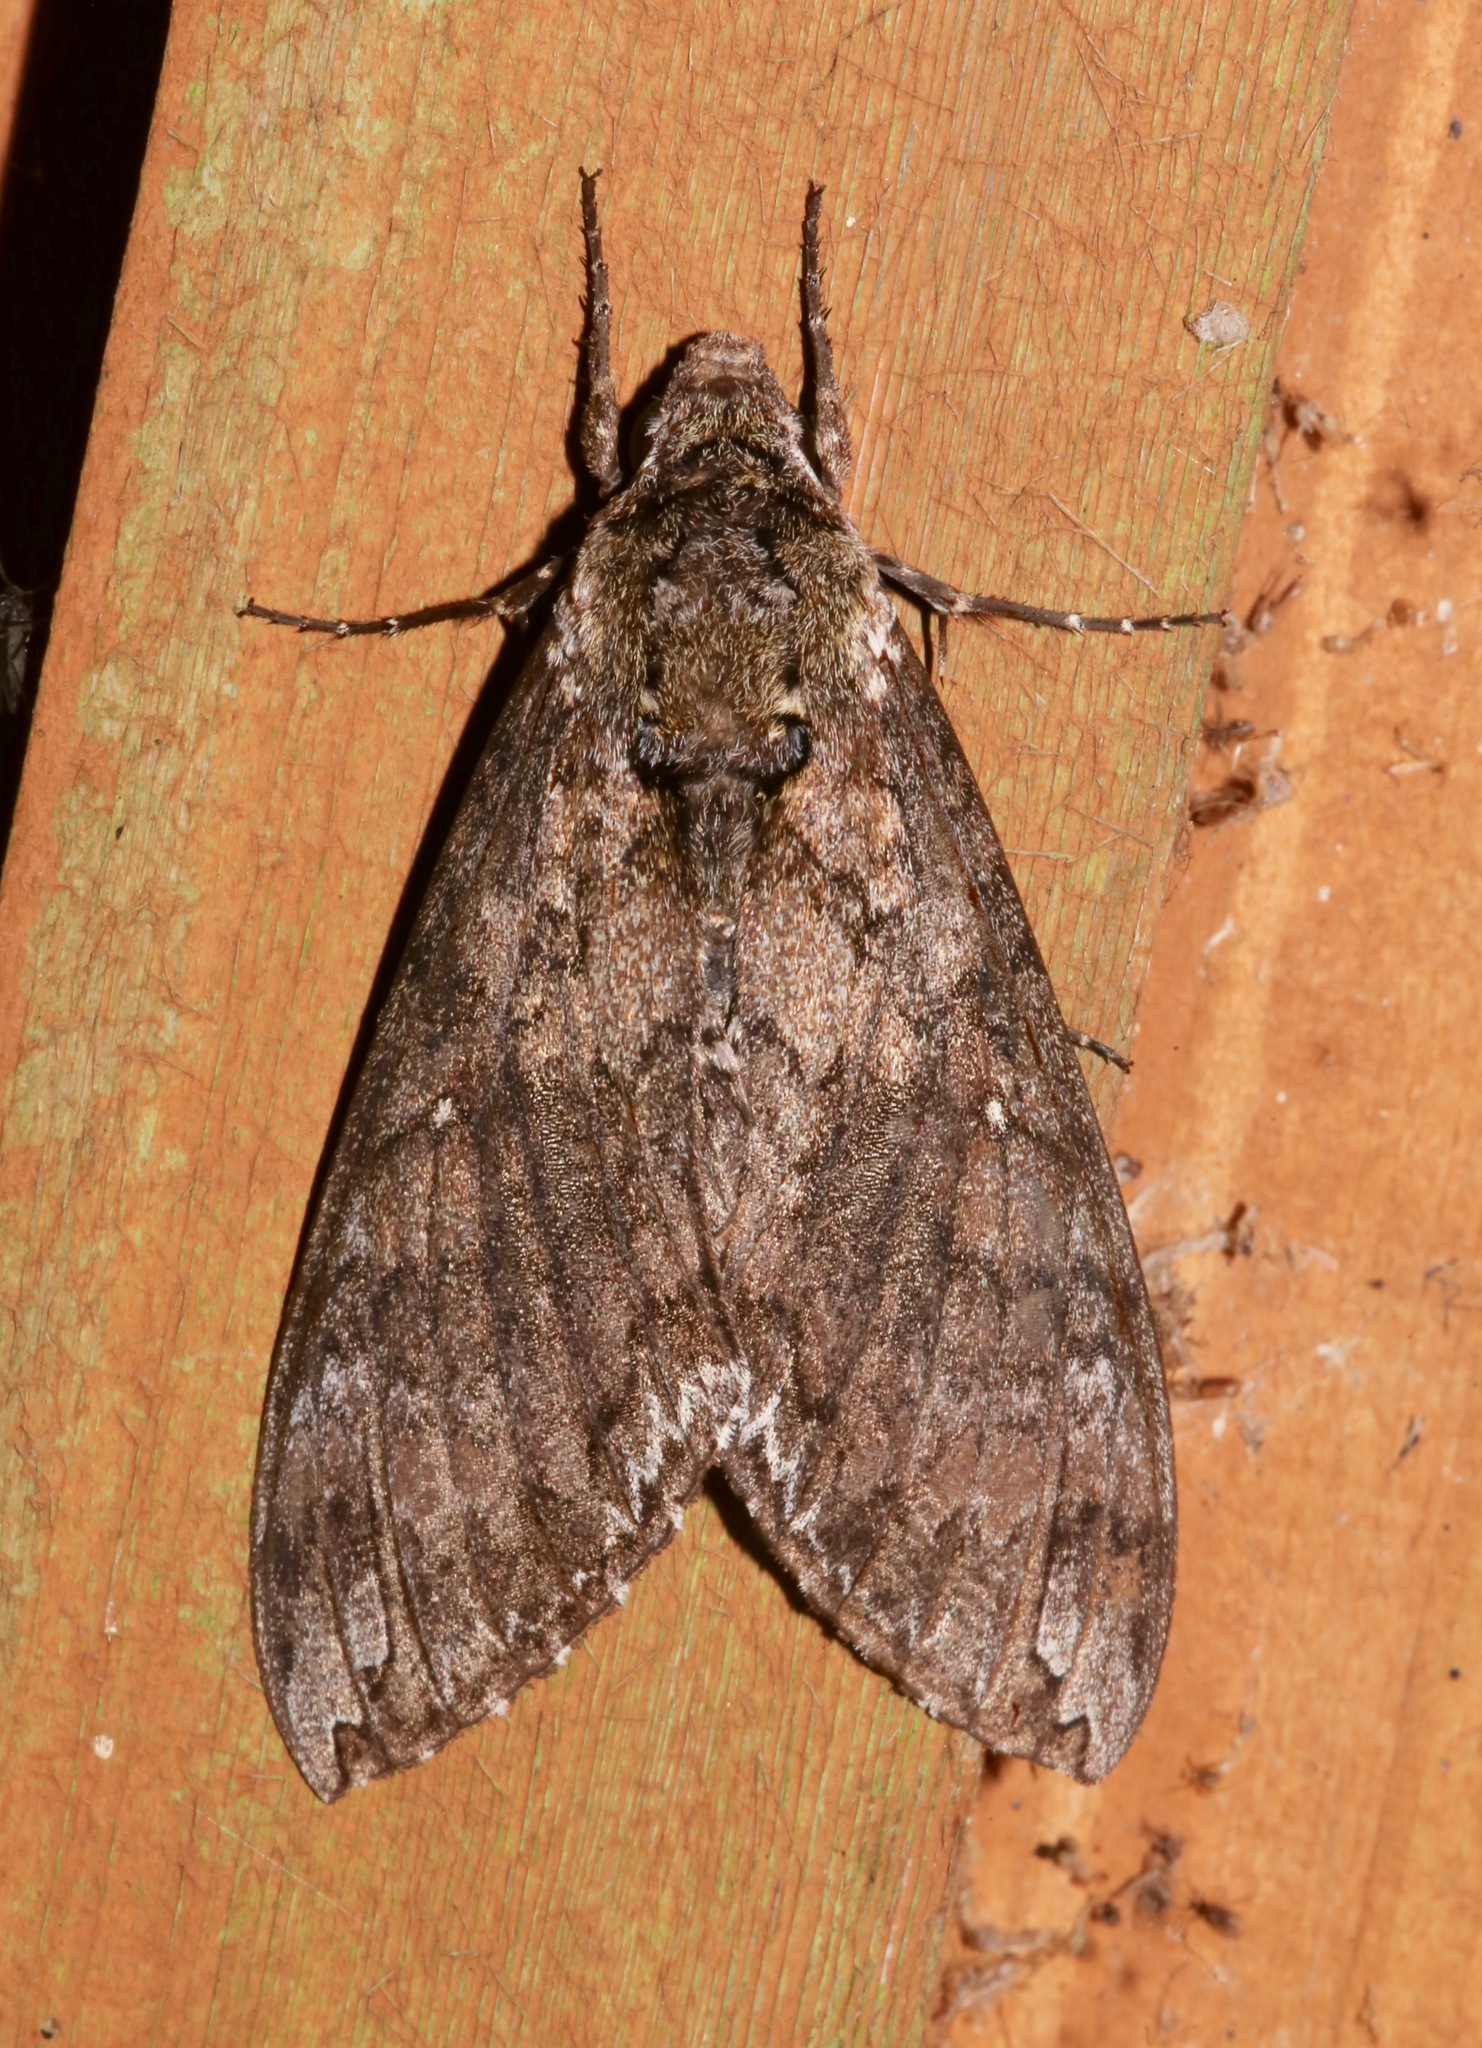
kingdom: Animalia
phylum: Arthropoda
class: Insecta
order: Lepidoptera
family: Sphingidae
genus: Manduca
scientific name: Manduca sexta
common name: Carolina sphinx
